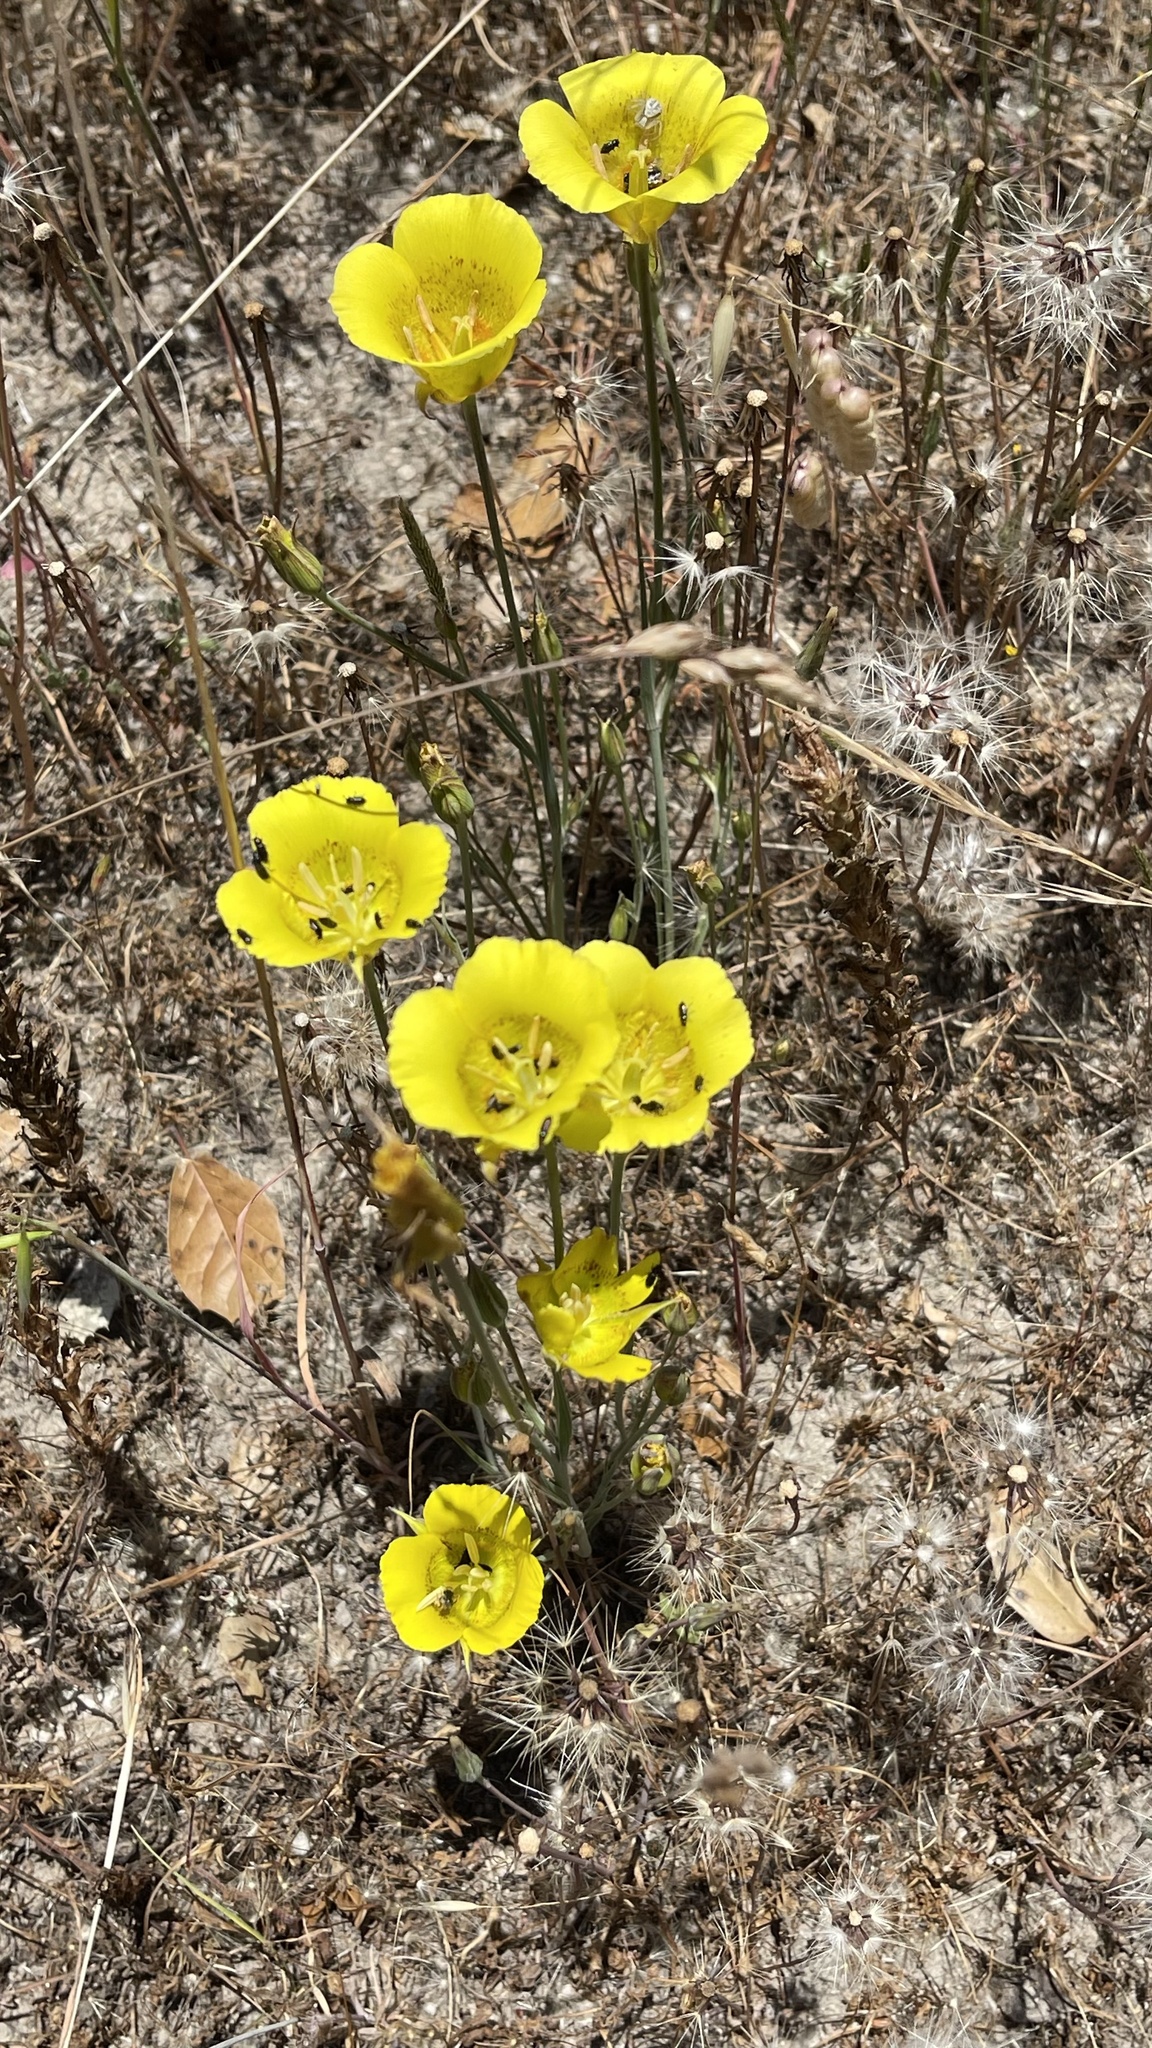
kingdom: Plantae
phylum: Tracheophyta
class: Liliopsida
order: Liliales
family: Liliaceae
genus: Calochortus
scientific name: Calochortus luteus
